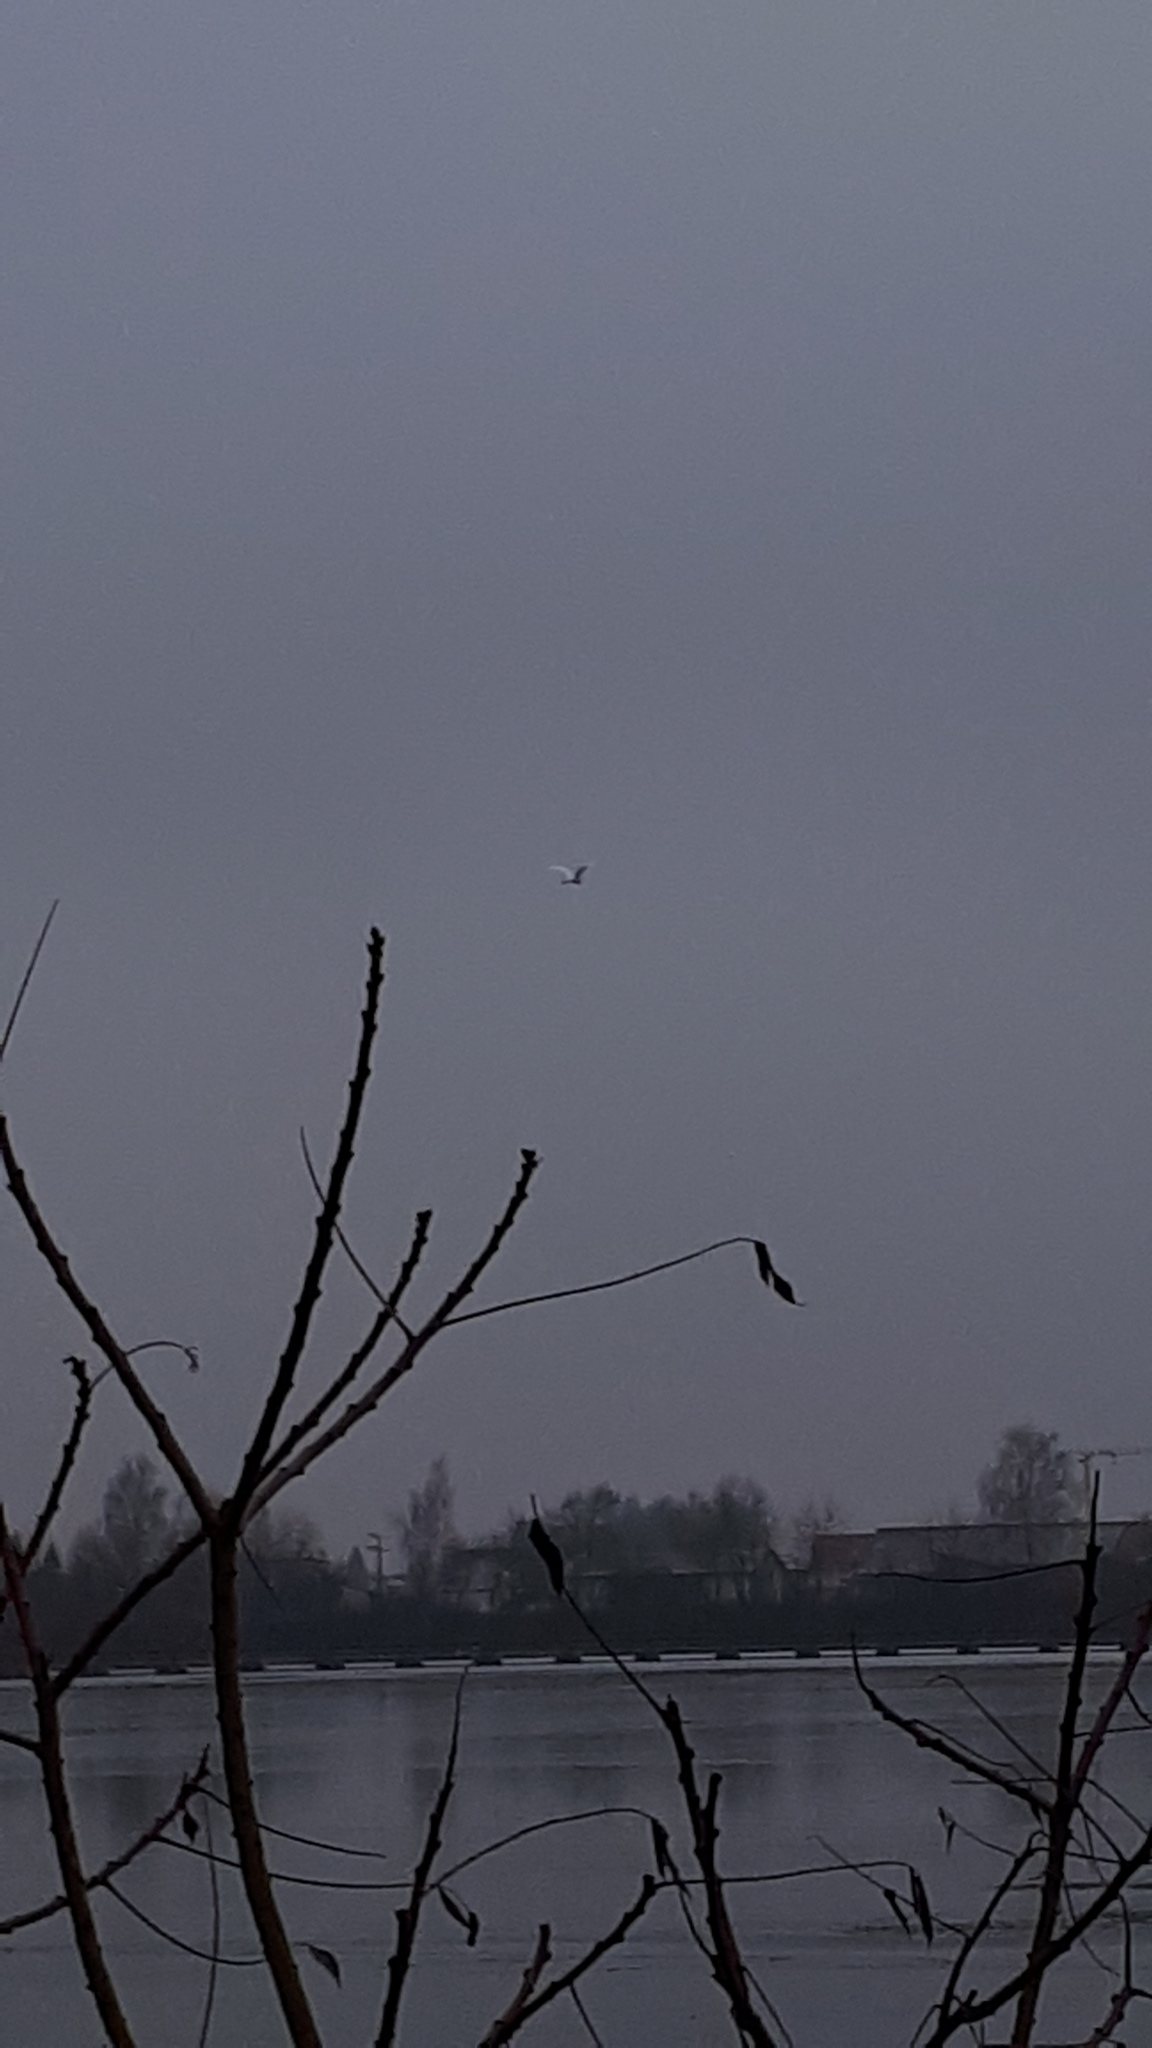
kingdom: Animalia
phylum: Chordata
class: Aves
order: Pelecaniformes
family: Ardeidae
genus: Ardea
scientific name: Ardea alba
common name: Great egret
